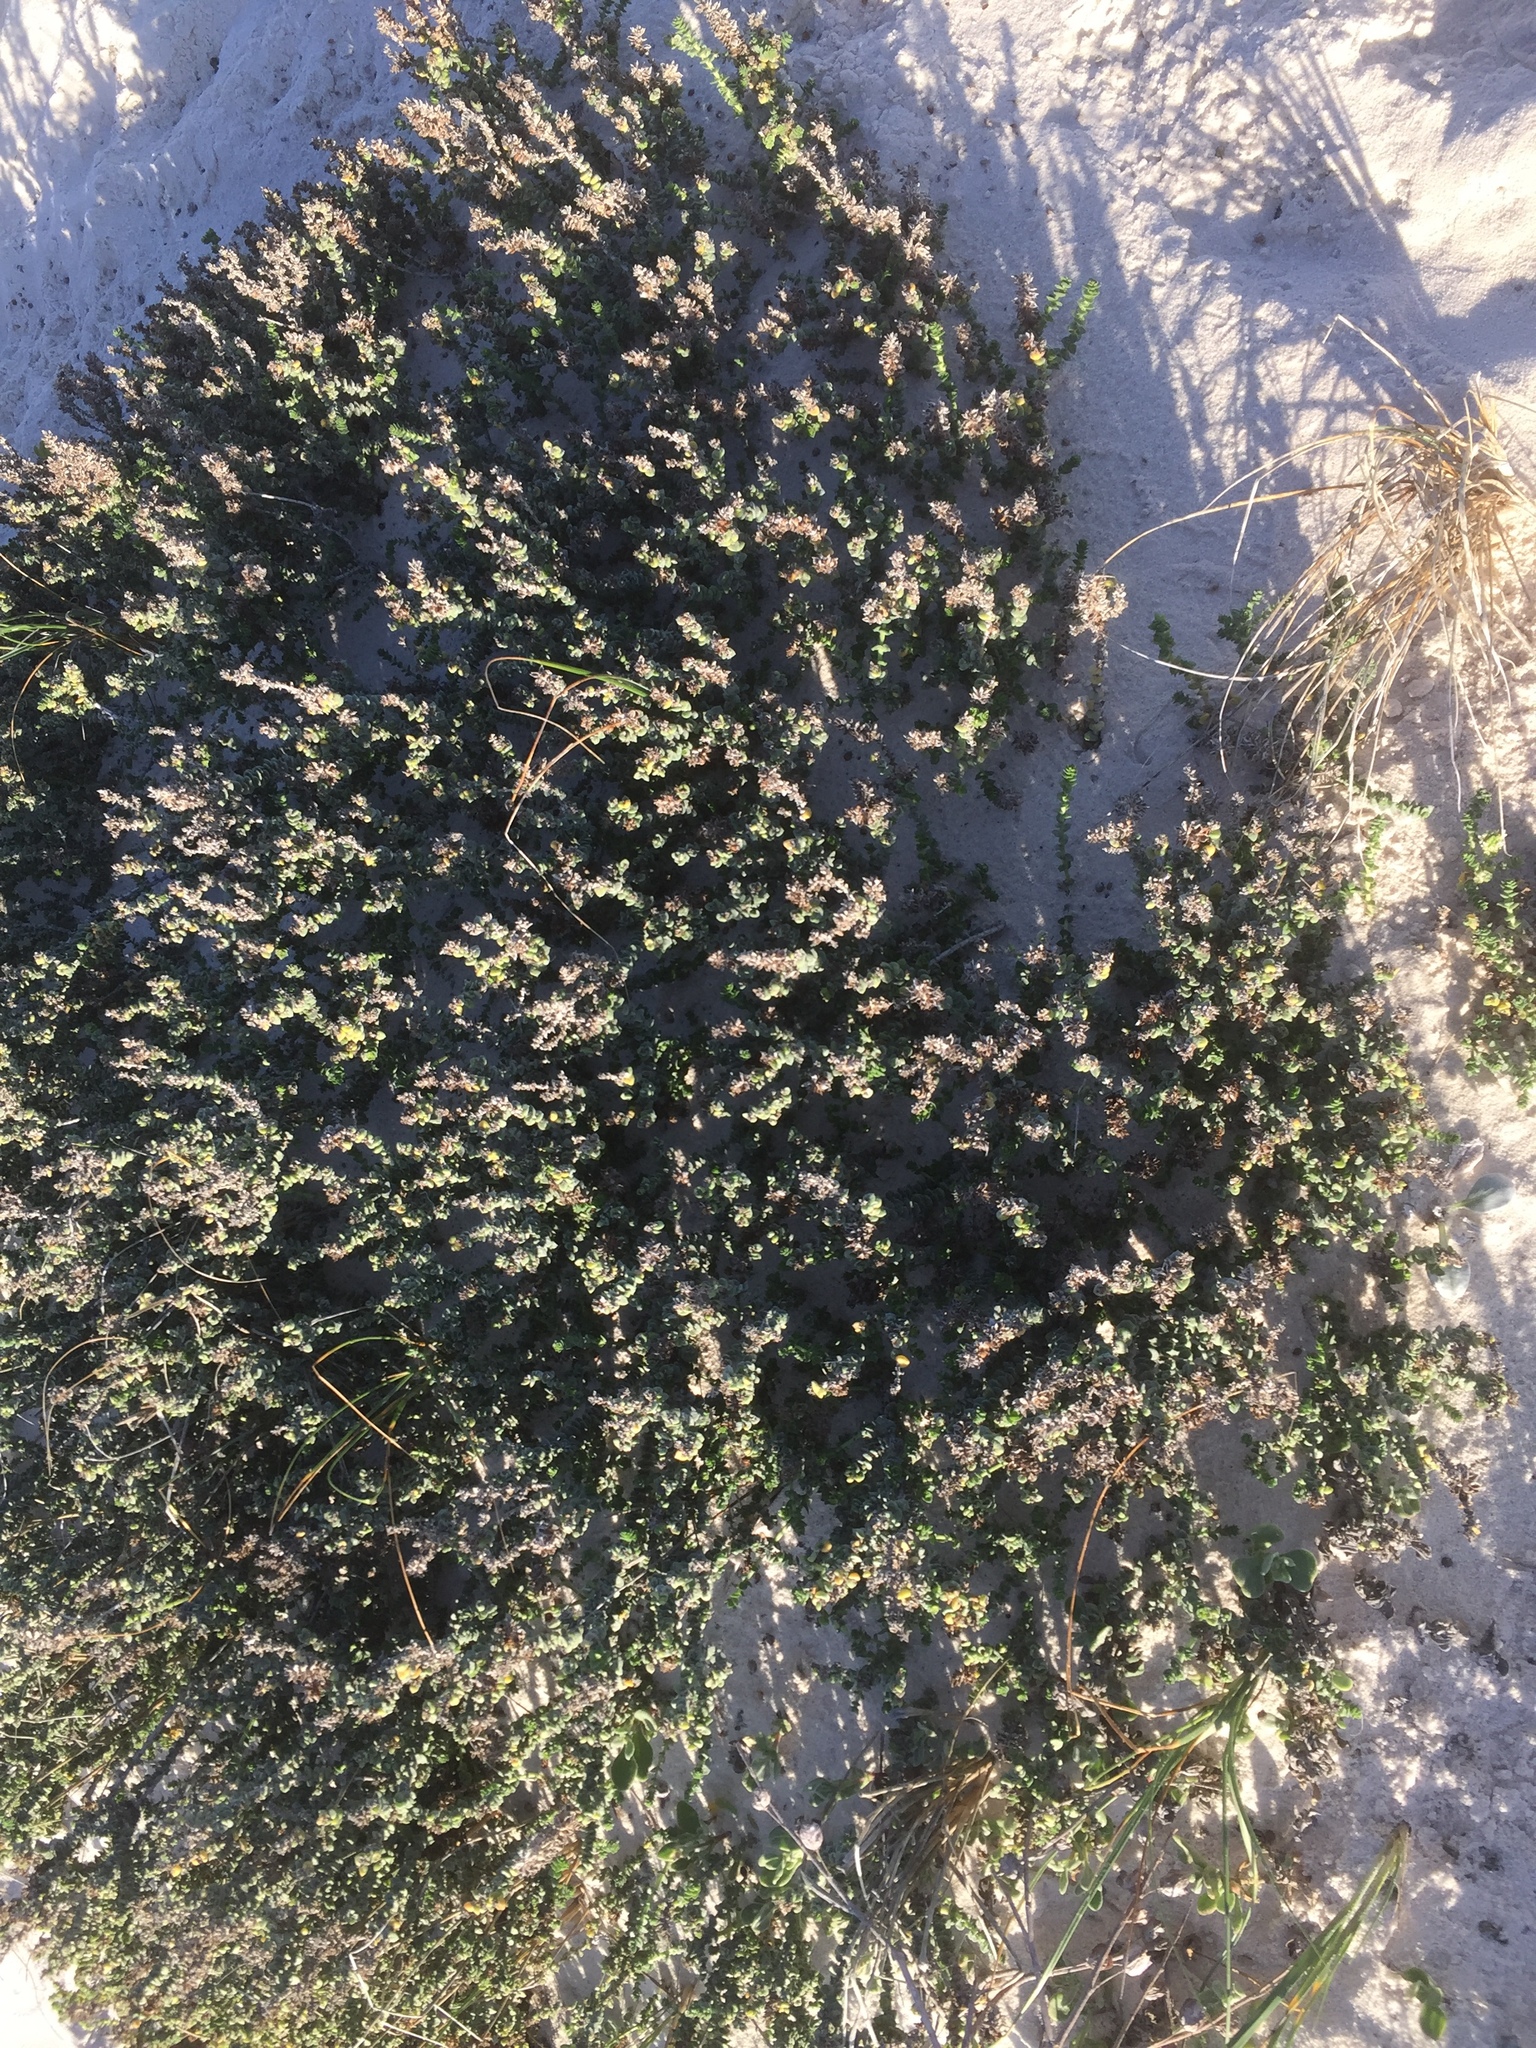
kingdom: Plantae
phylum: Tracheophyta
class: Magnoliopsida
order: Lamiales
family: Scrophulariaceae
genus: Hebenstretia
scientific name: Hebenstretia cordata
